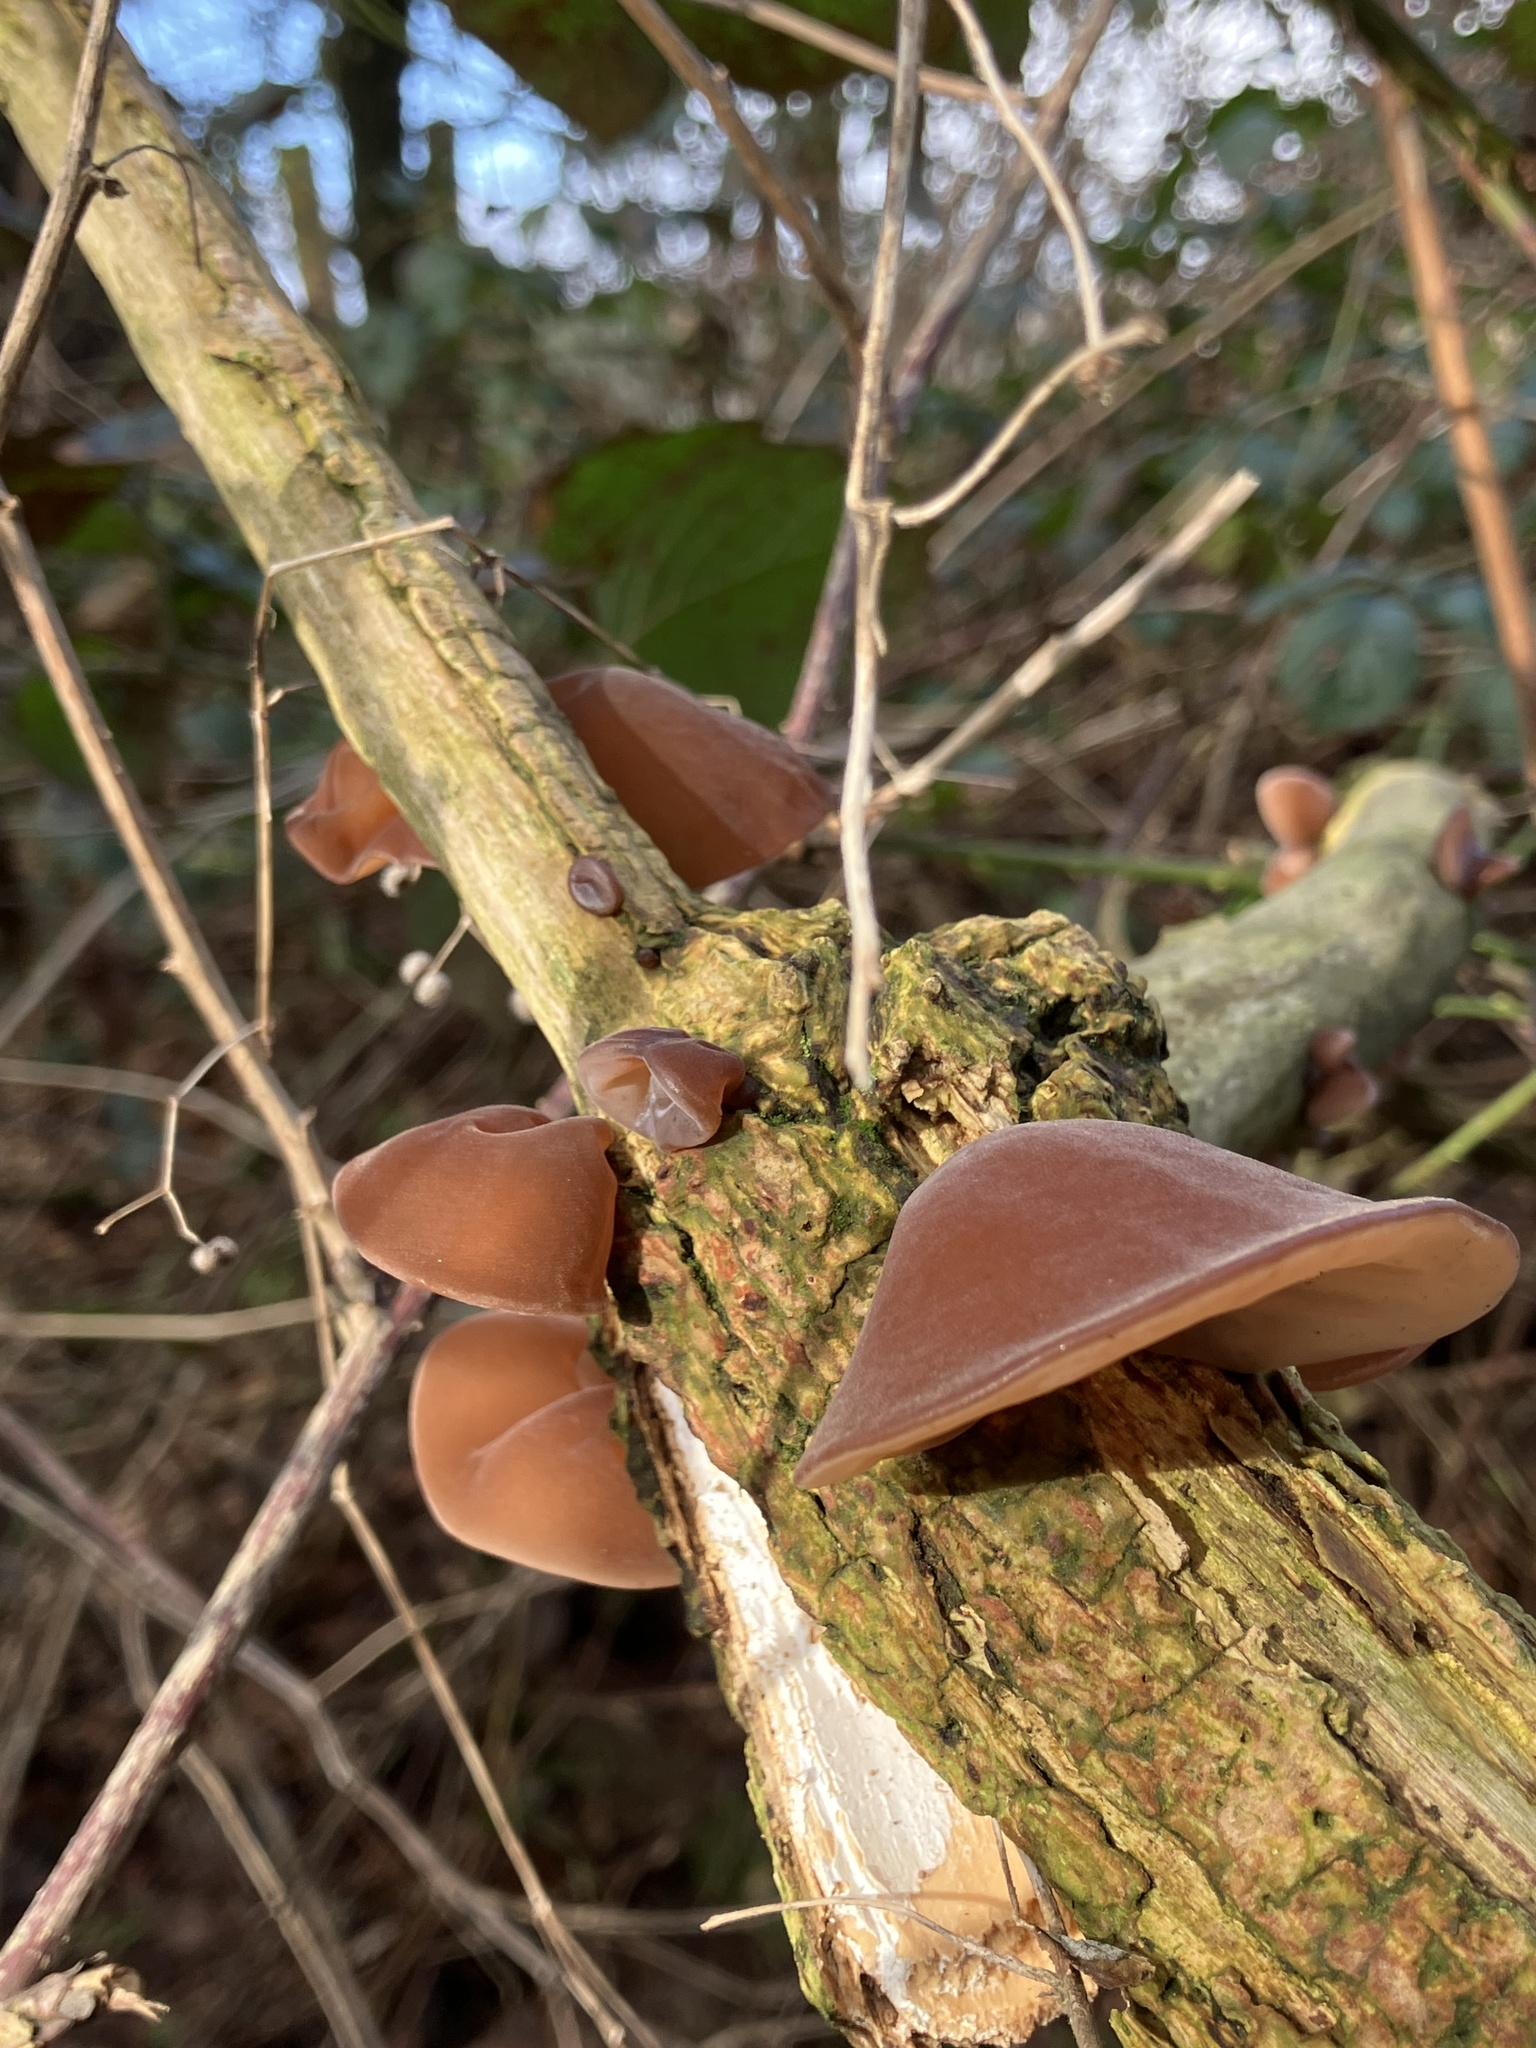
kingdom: Fungi
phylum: Basidiomycota
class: Agaricomycetes
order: Auriculariales
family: Auriculariaceae
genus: Auricularia
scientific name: Auricularia auricula-judae
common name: Jelly ear
